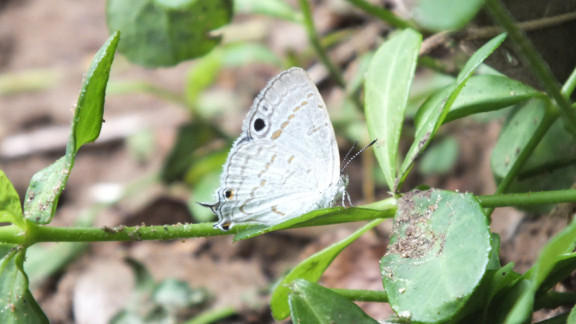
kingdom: Animalia
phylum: Arthropoda
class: Insecta
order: Lepidoptera
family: Lycaenidae
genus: Leptomyrina
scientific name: Leptomyrina hirundo
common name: Tailed black-eye
